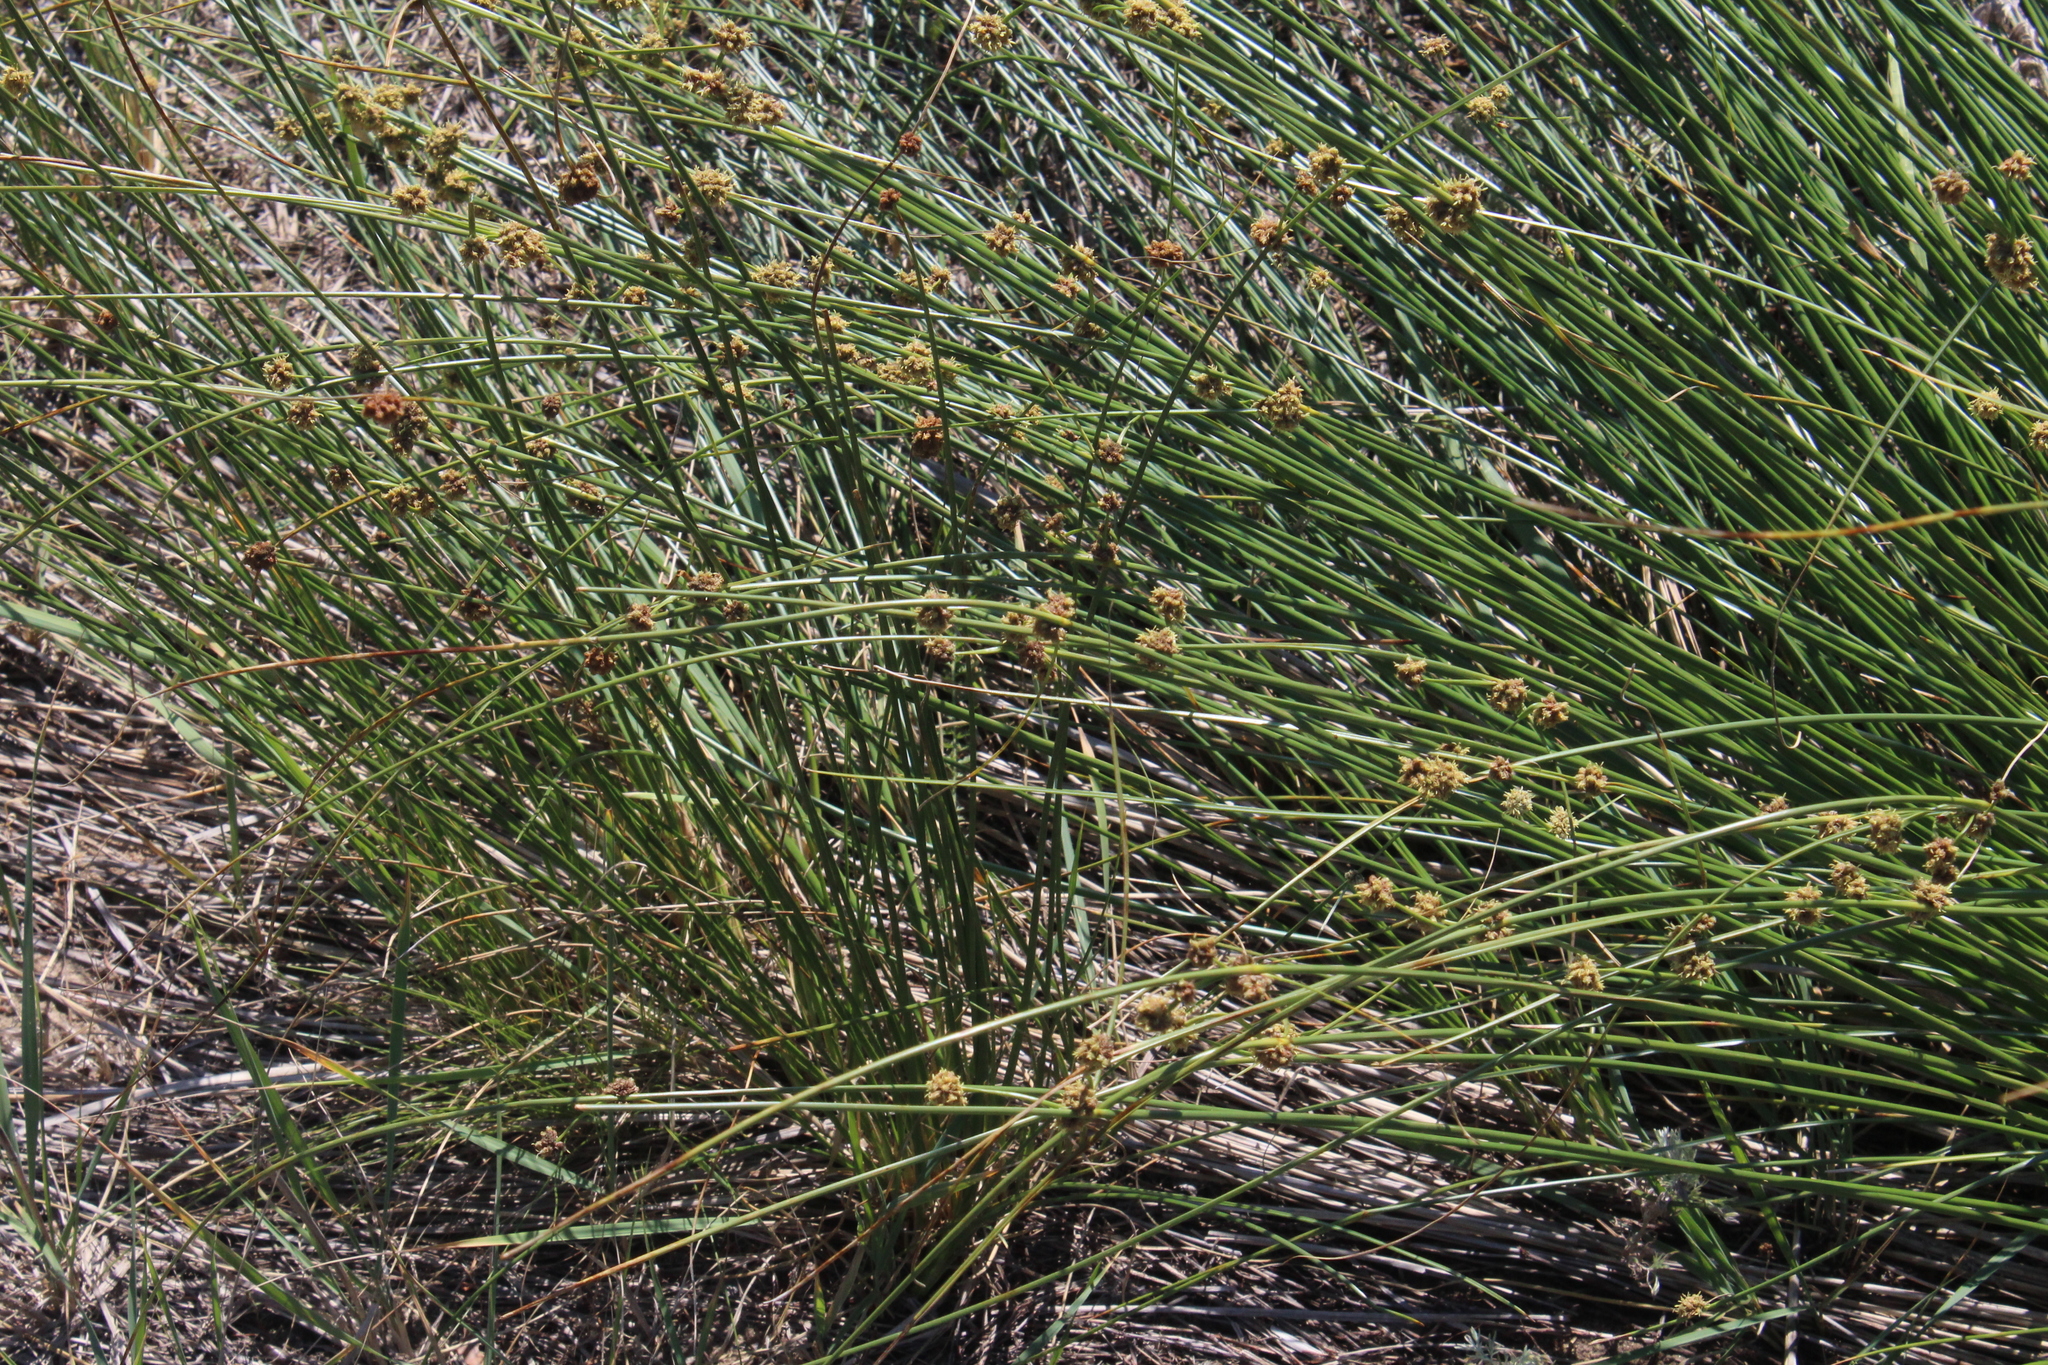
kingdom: Plantae
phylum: Tracheophyta
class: Liliopsida
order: Poales
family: Cyperaceae
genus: Scirpoides
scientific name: Scirpoides holoschoenus
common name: Round-headed club-rush
